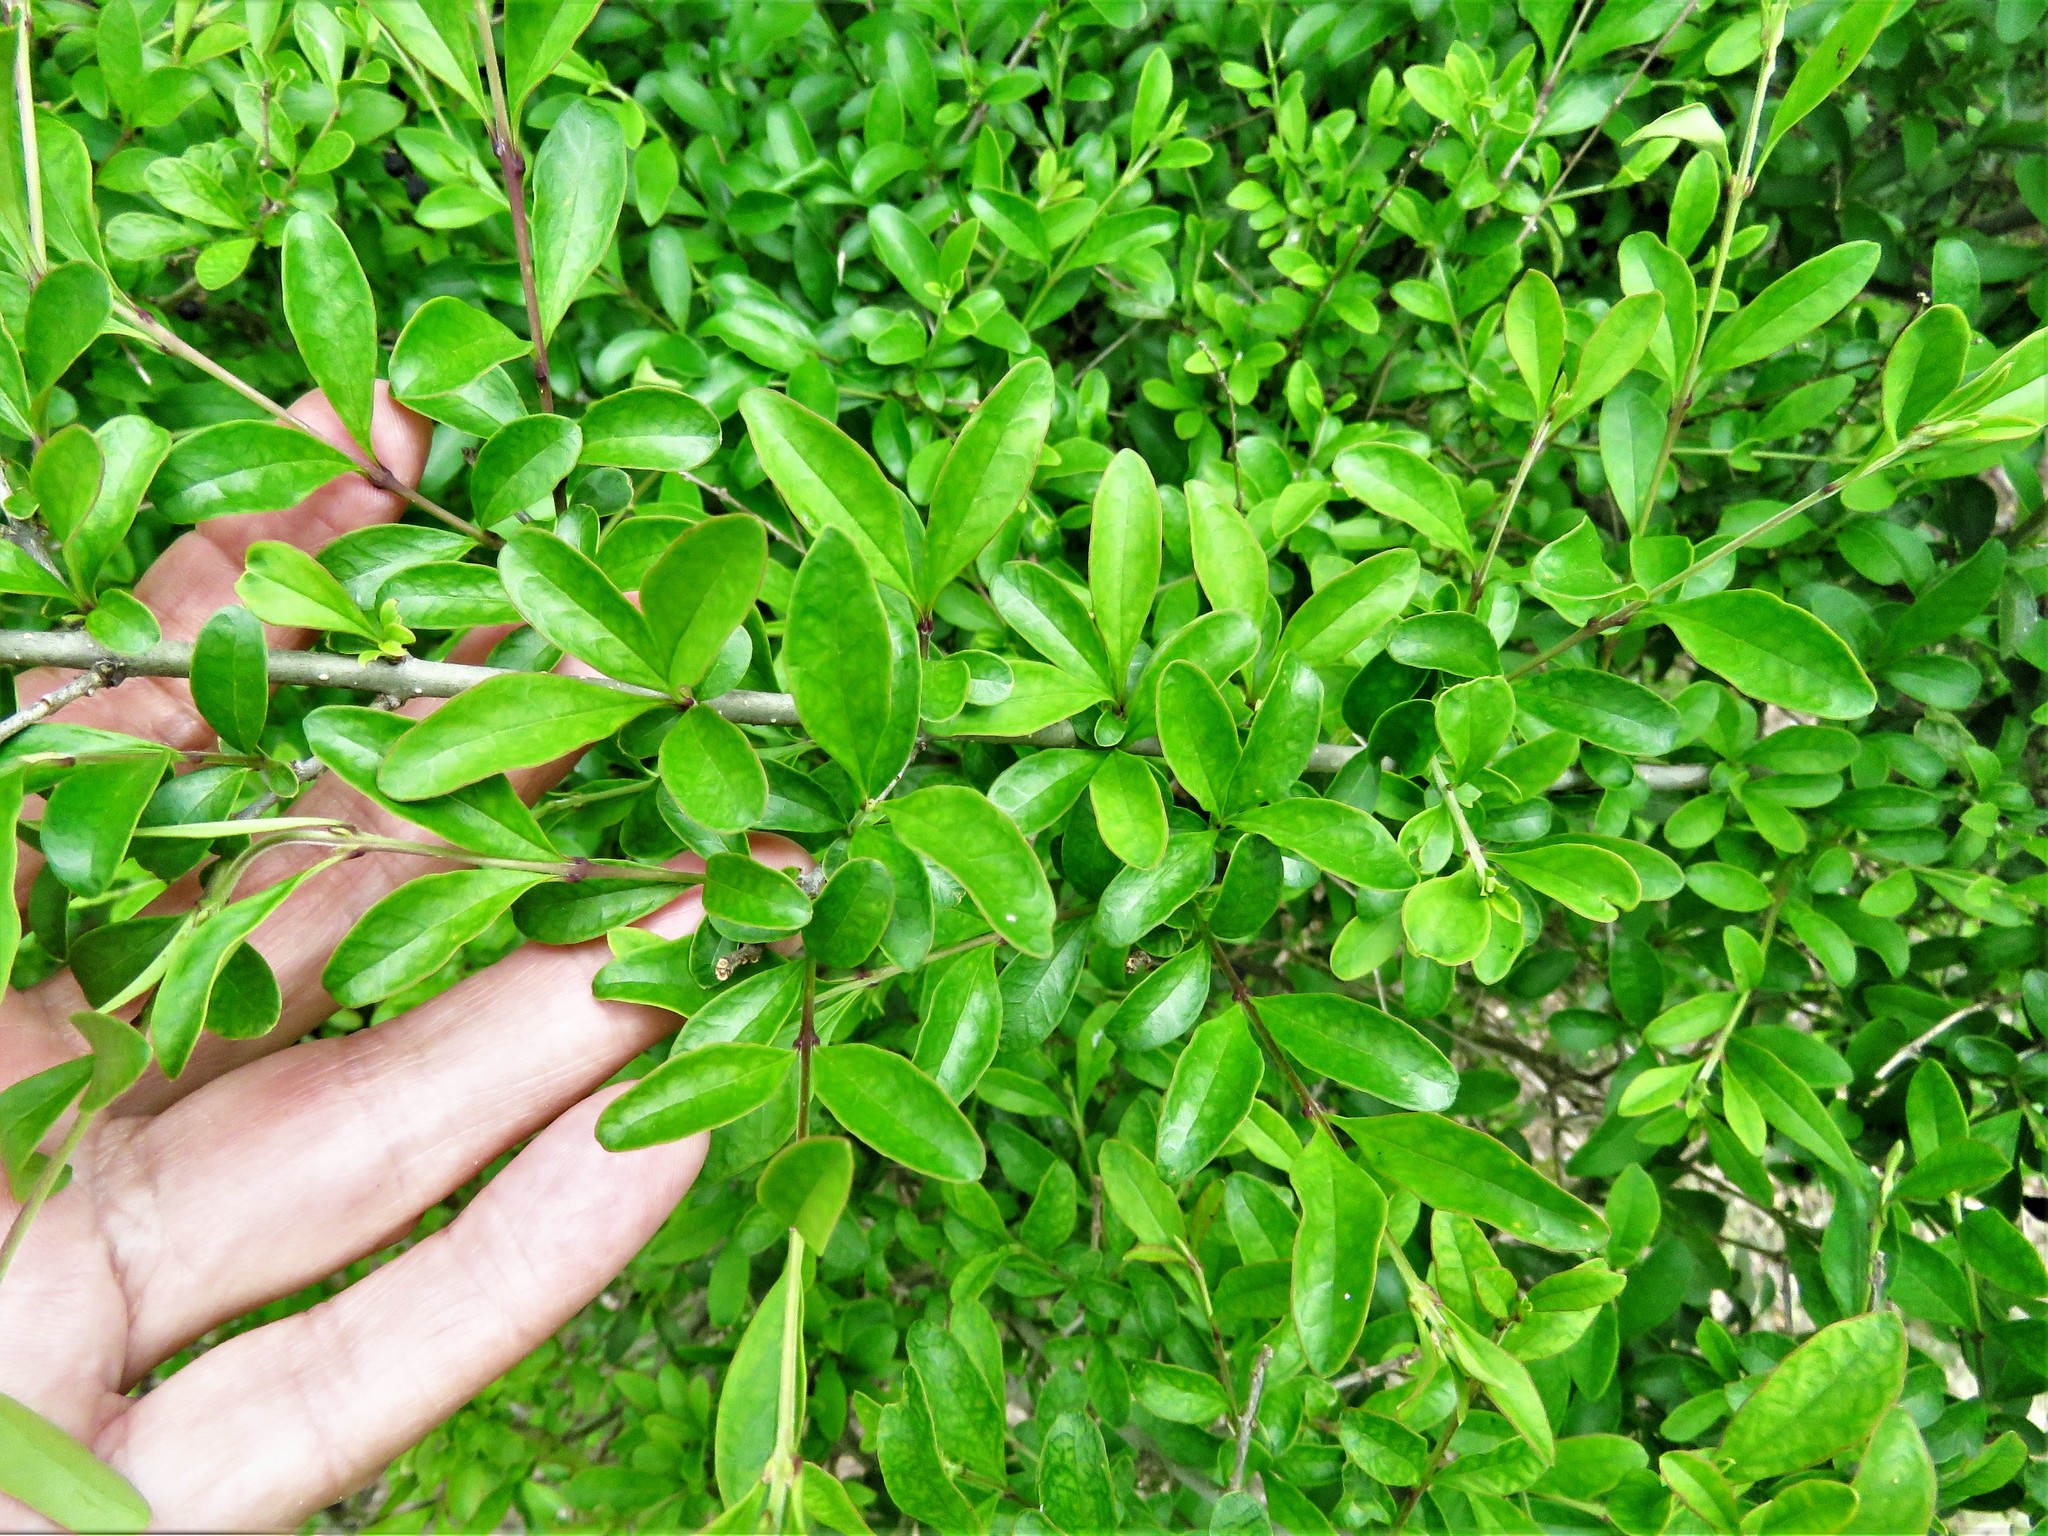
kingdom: Plantae
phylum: Tracheophyta
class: Magnoliopsida
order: Lamiales
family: Oleaceae
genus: Ligustrum
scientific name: Ligustrum quihoui
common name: Waxyleaf privet
